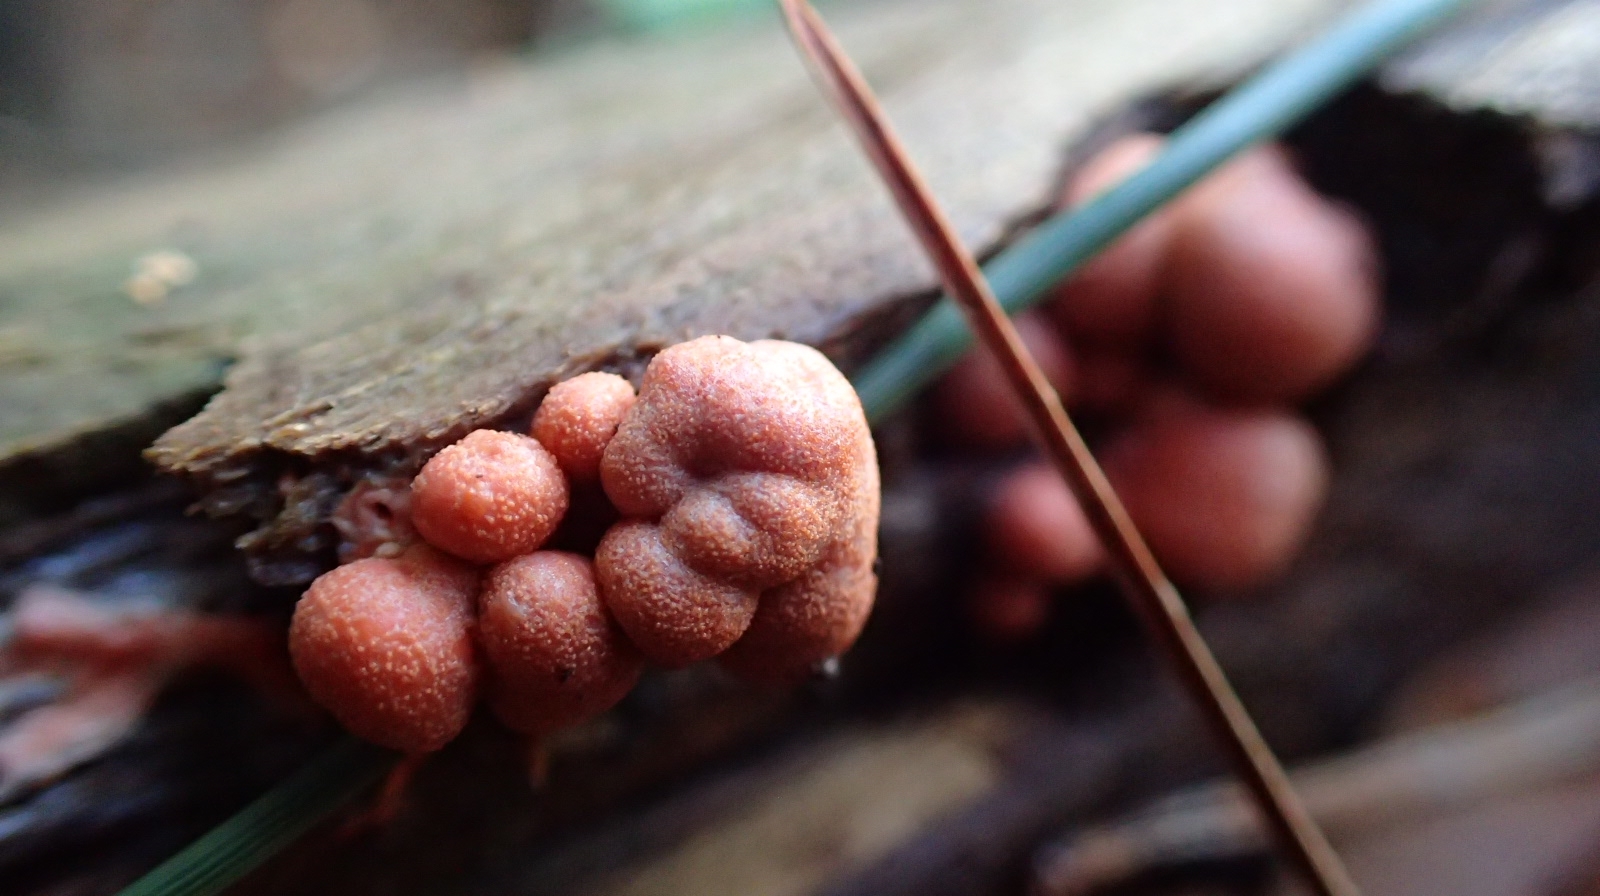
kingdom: Protozoa
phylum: Mycetozoa
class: Myxomycetes
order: Cribrariales
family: Tubiferaceae
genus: Lycogala
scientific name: Lycogala epidendrum
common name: Wolf's milk
